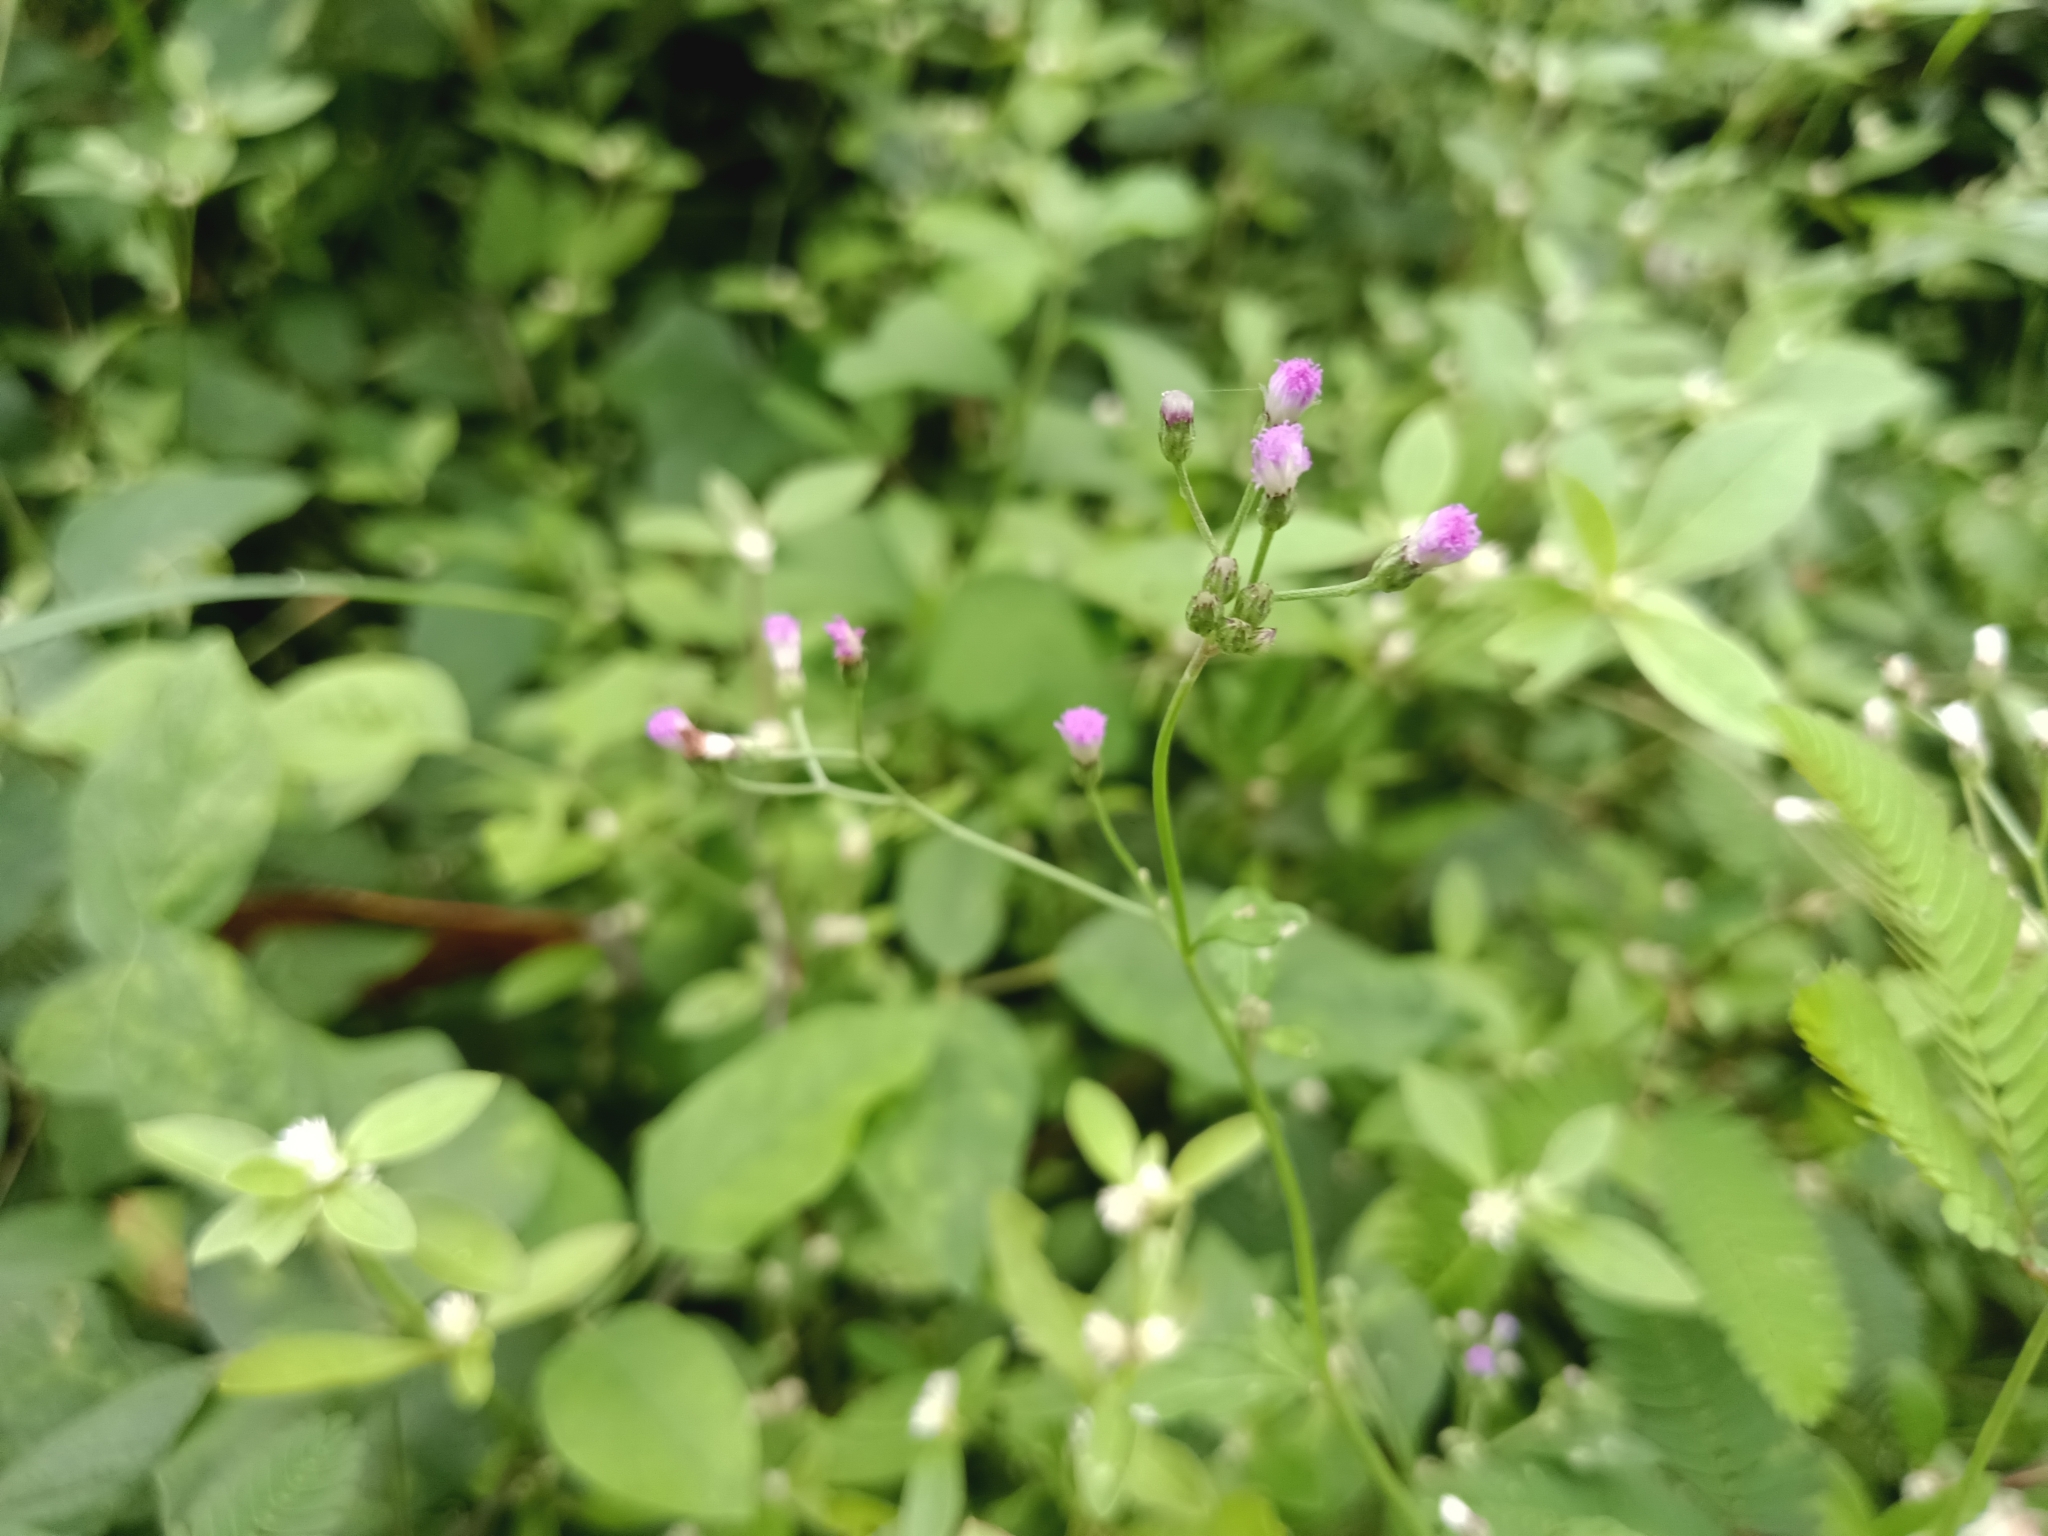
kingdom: Plantae
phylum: Tracheophyta
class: Magnoliopsida
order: Asterales
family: Asteraceae
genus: Cyanthillium
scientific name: Cyanthillium cinereum
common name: Little ironweed
